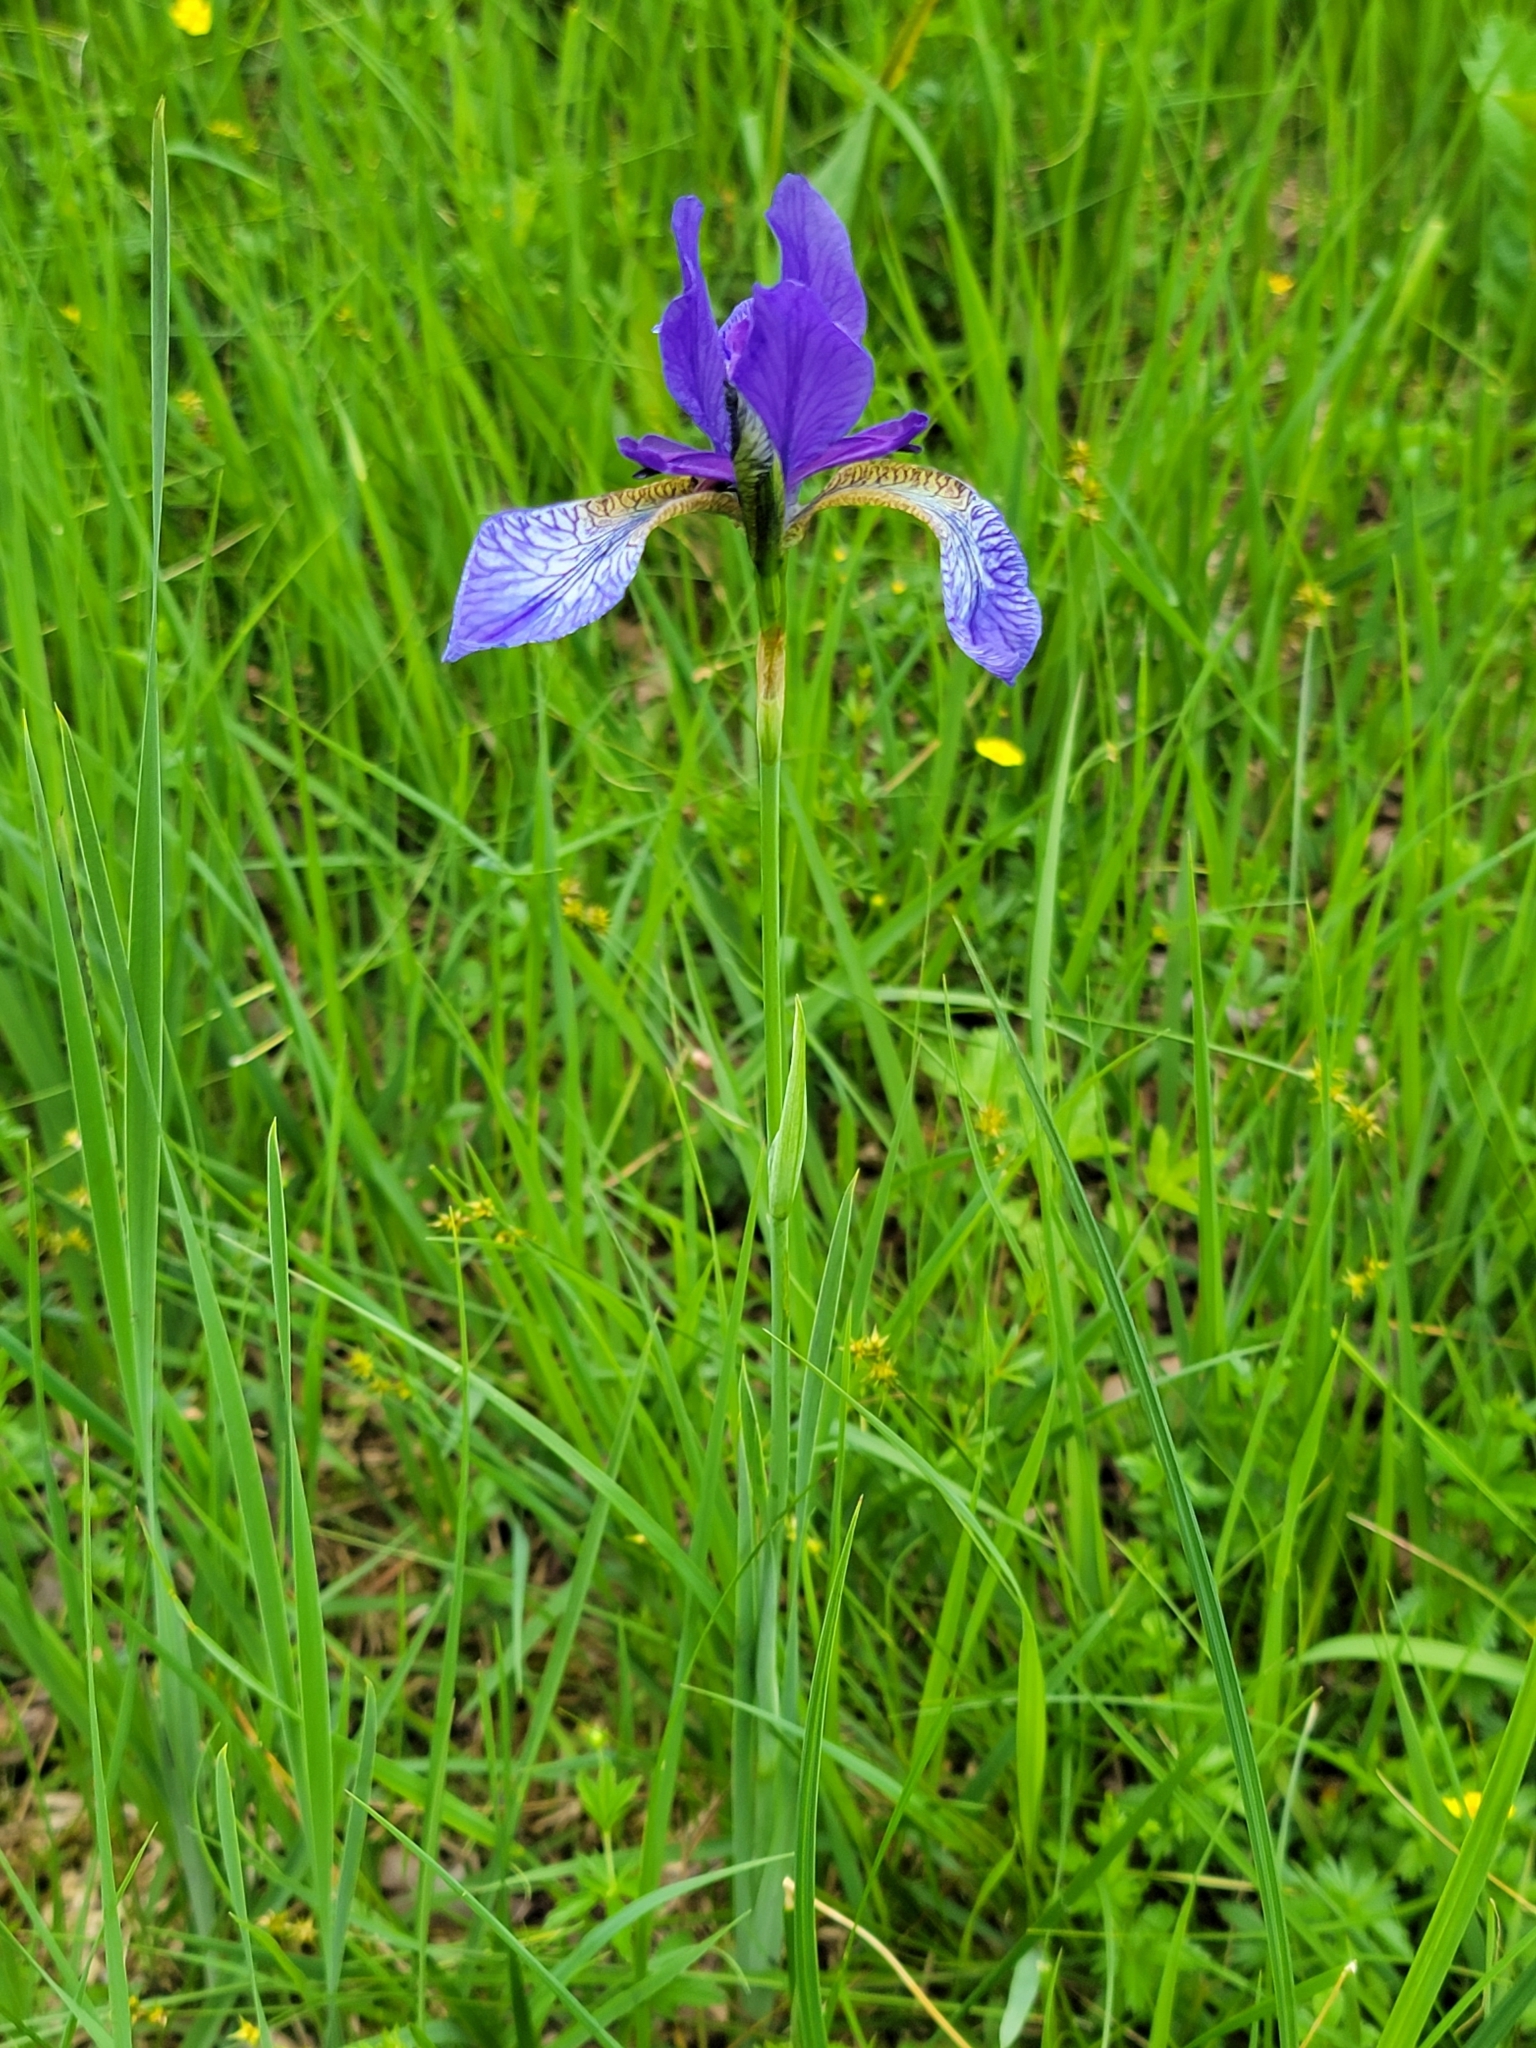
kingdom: Plantae
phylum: Tracheophyta
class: Liliopsida
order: Asparagales
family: Iridaceae
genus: Iris
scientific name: Iris sibirica
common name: Siberian iris
